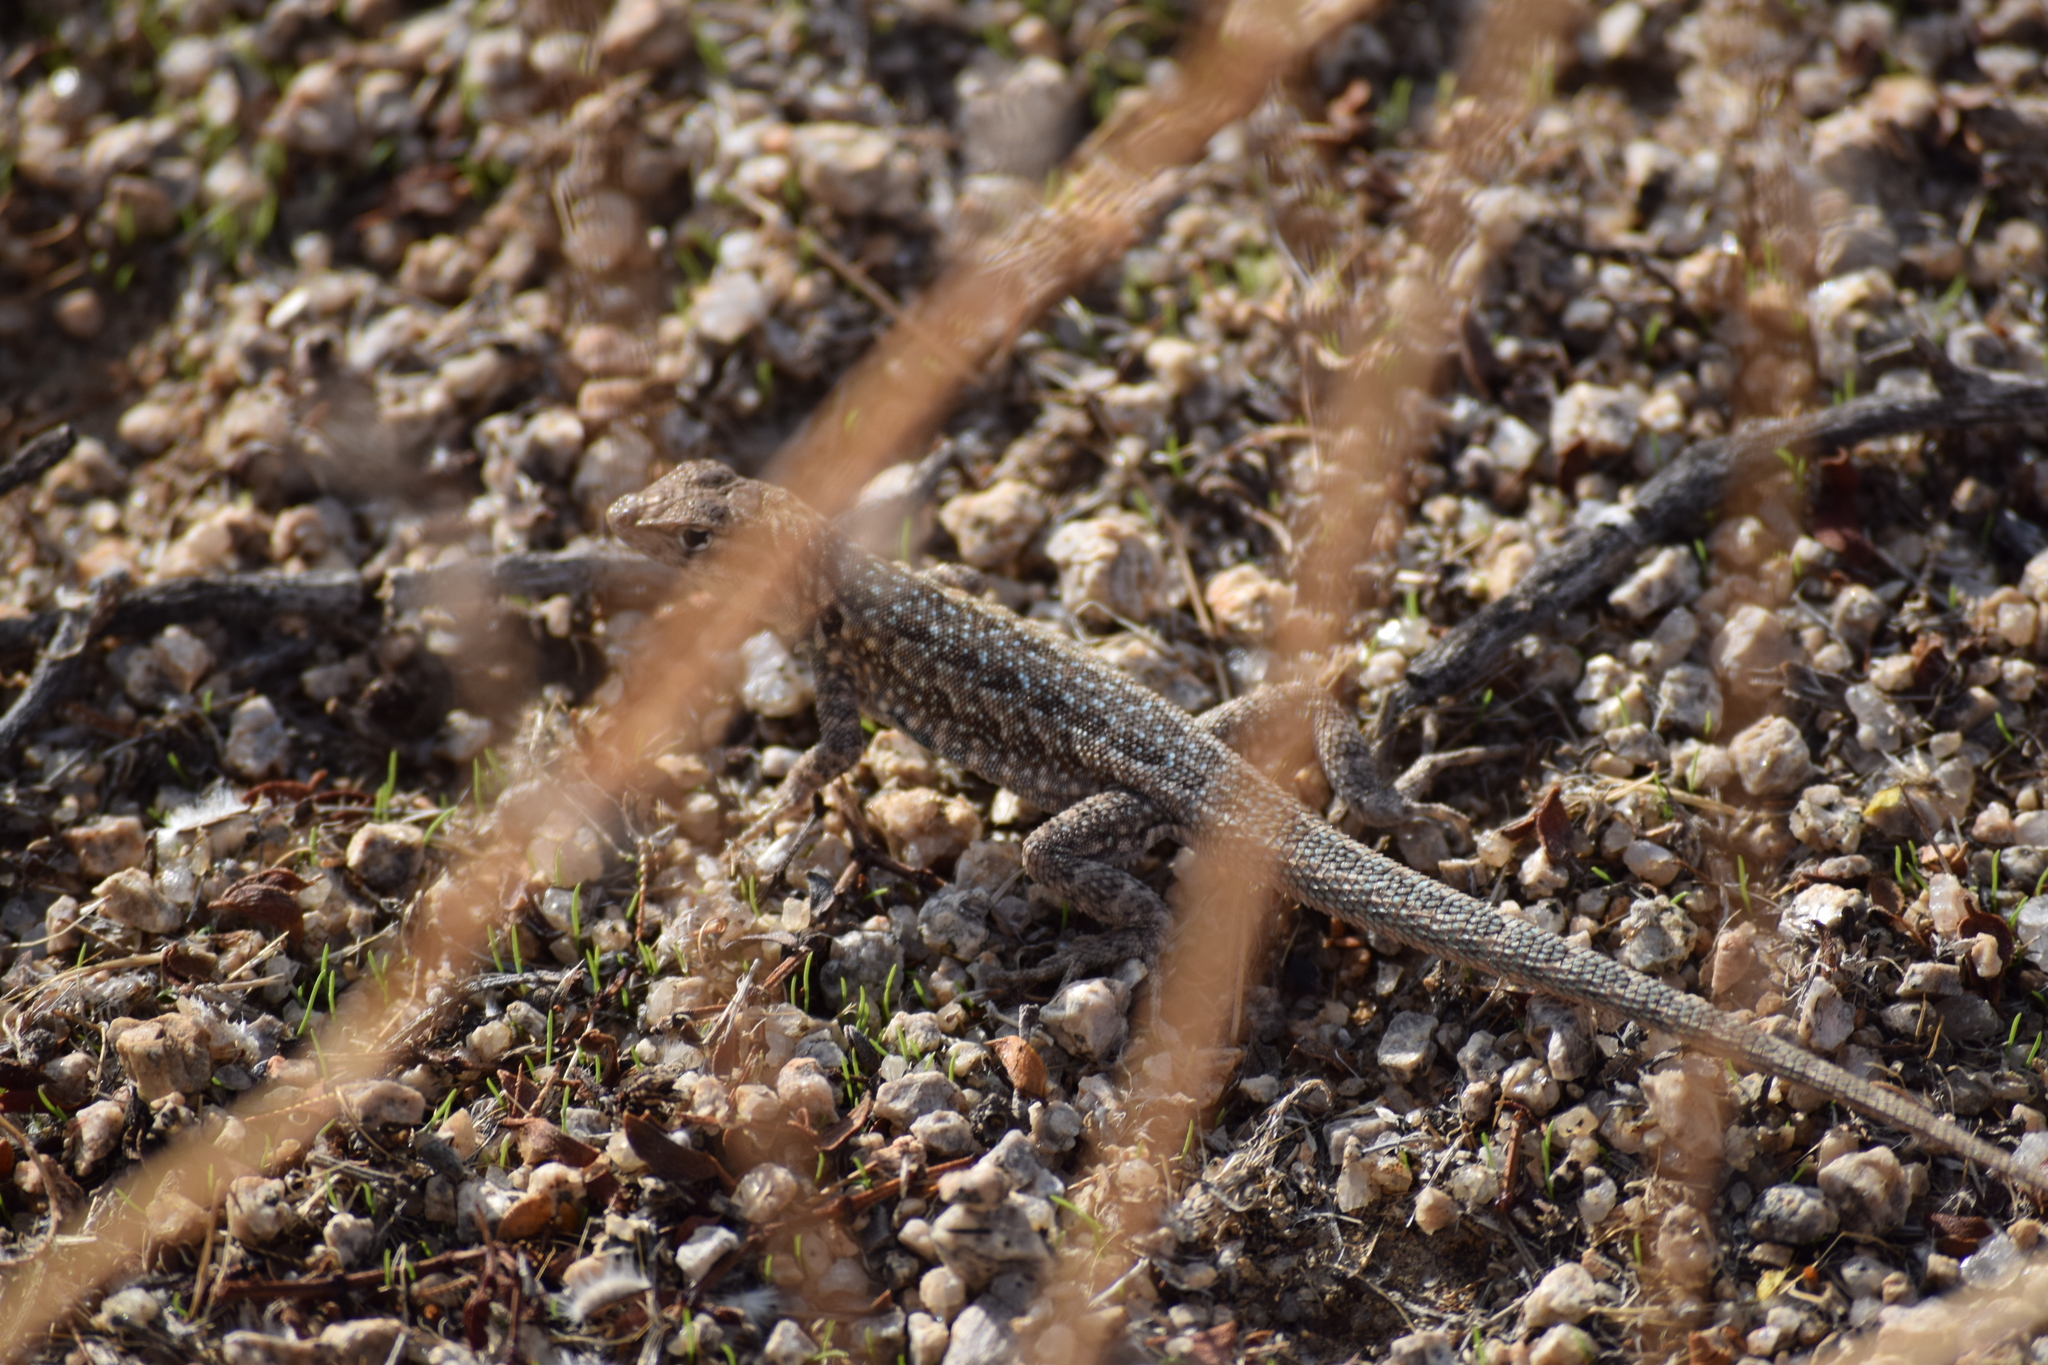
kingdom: Animalia
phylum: Chordata
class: Squamata
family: Phrynosomatidae
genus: Uta
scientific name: Uta stansburiana
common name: Side-blotched lizard
